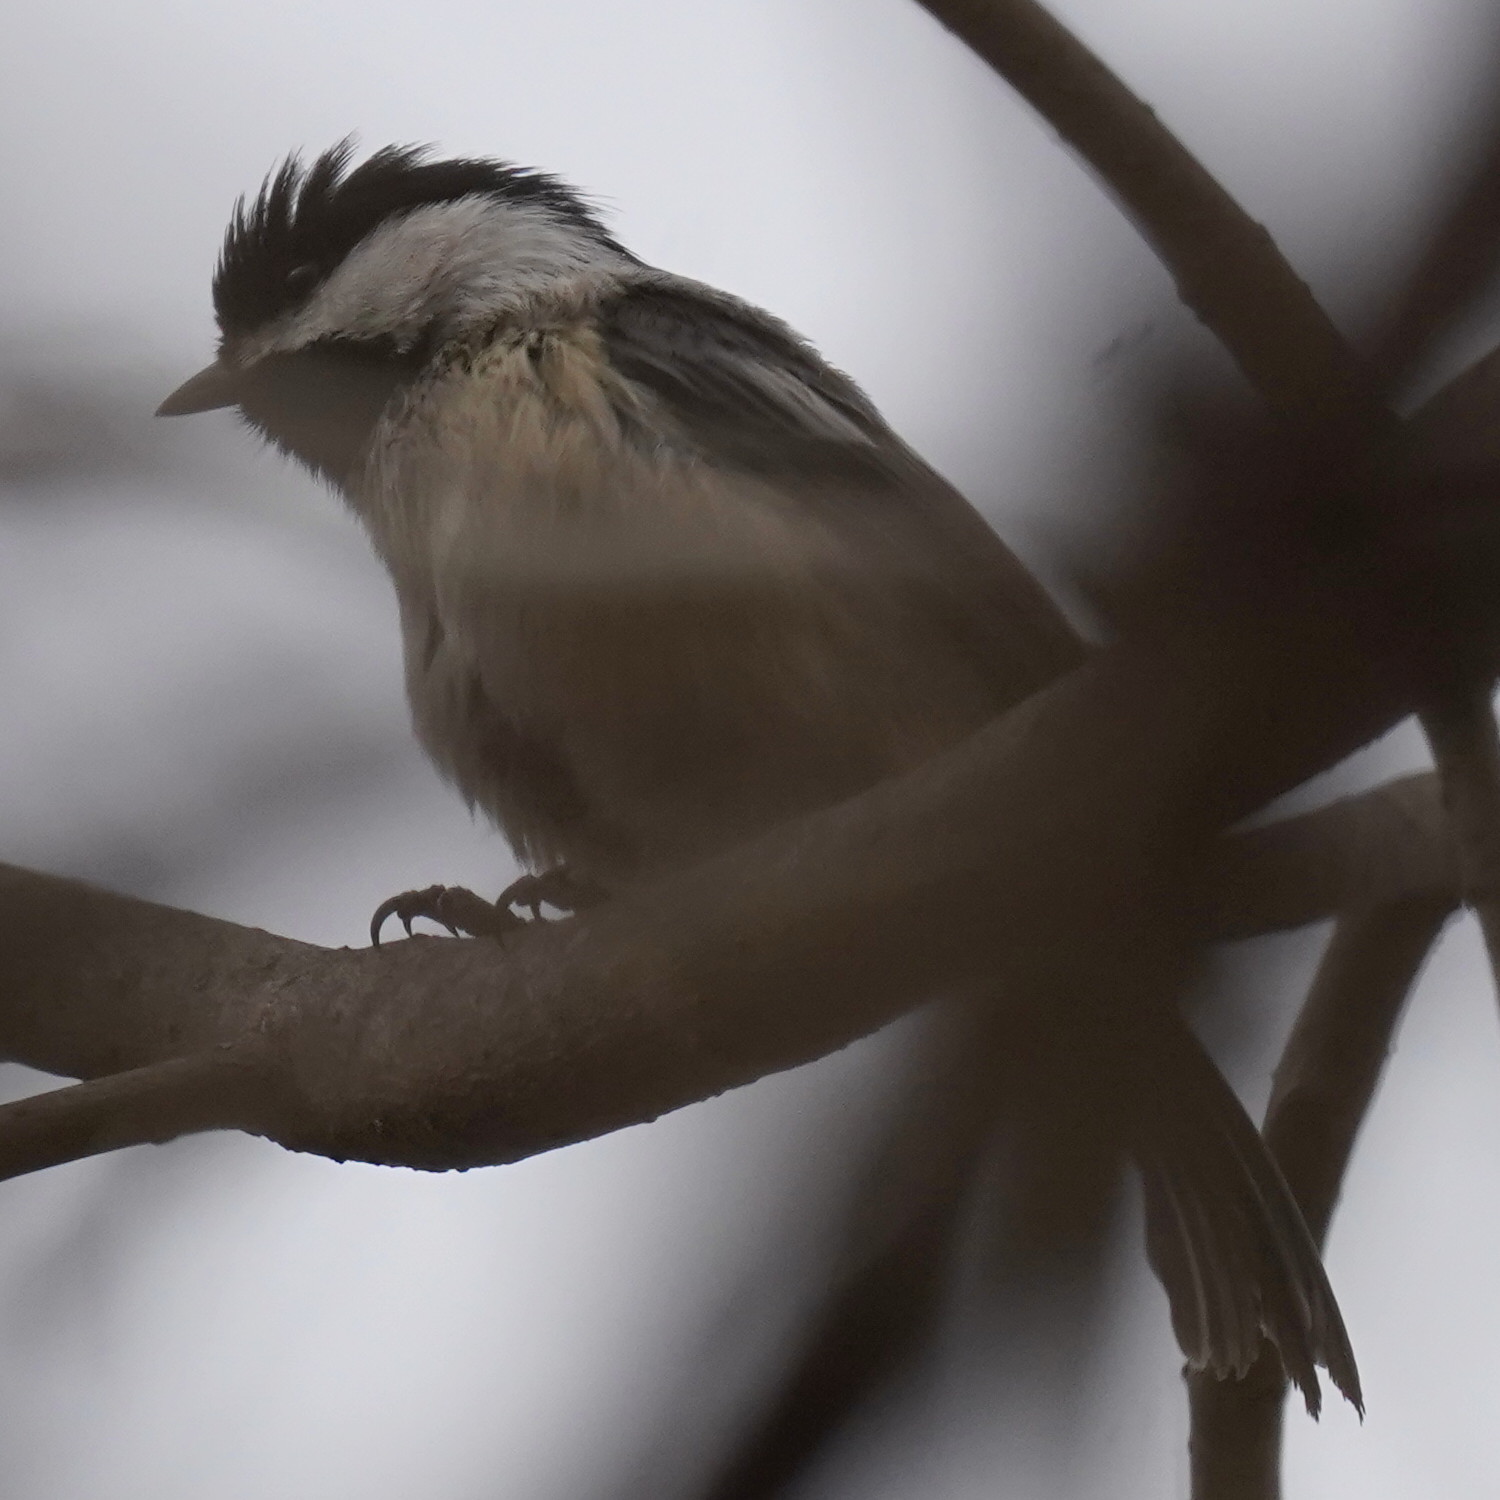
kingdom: Animalia
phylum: Chordata
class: Aves
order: Passeriformes
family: Paridae
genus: Poecile
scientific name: Poecile atricapillus
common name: Black-capped chickadee
